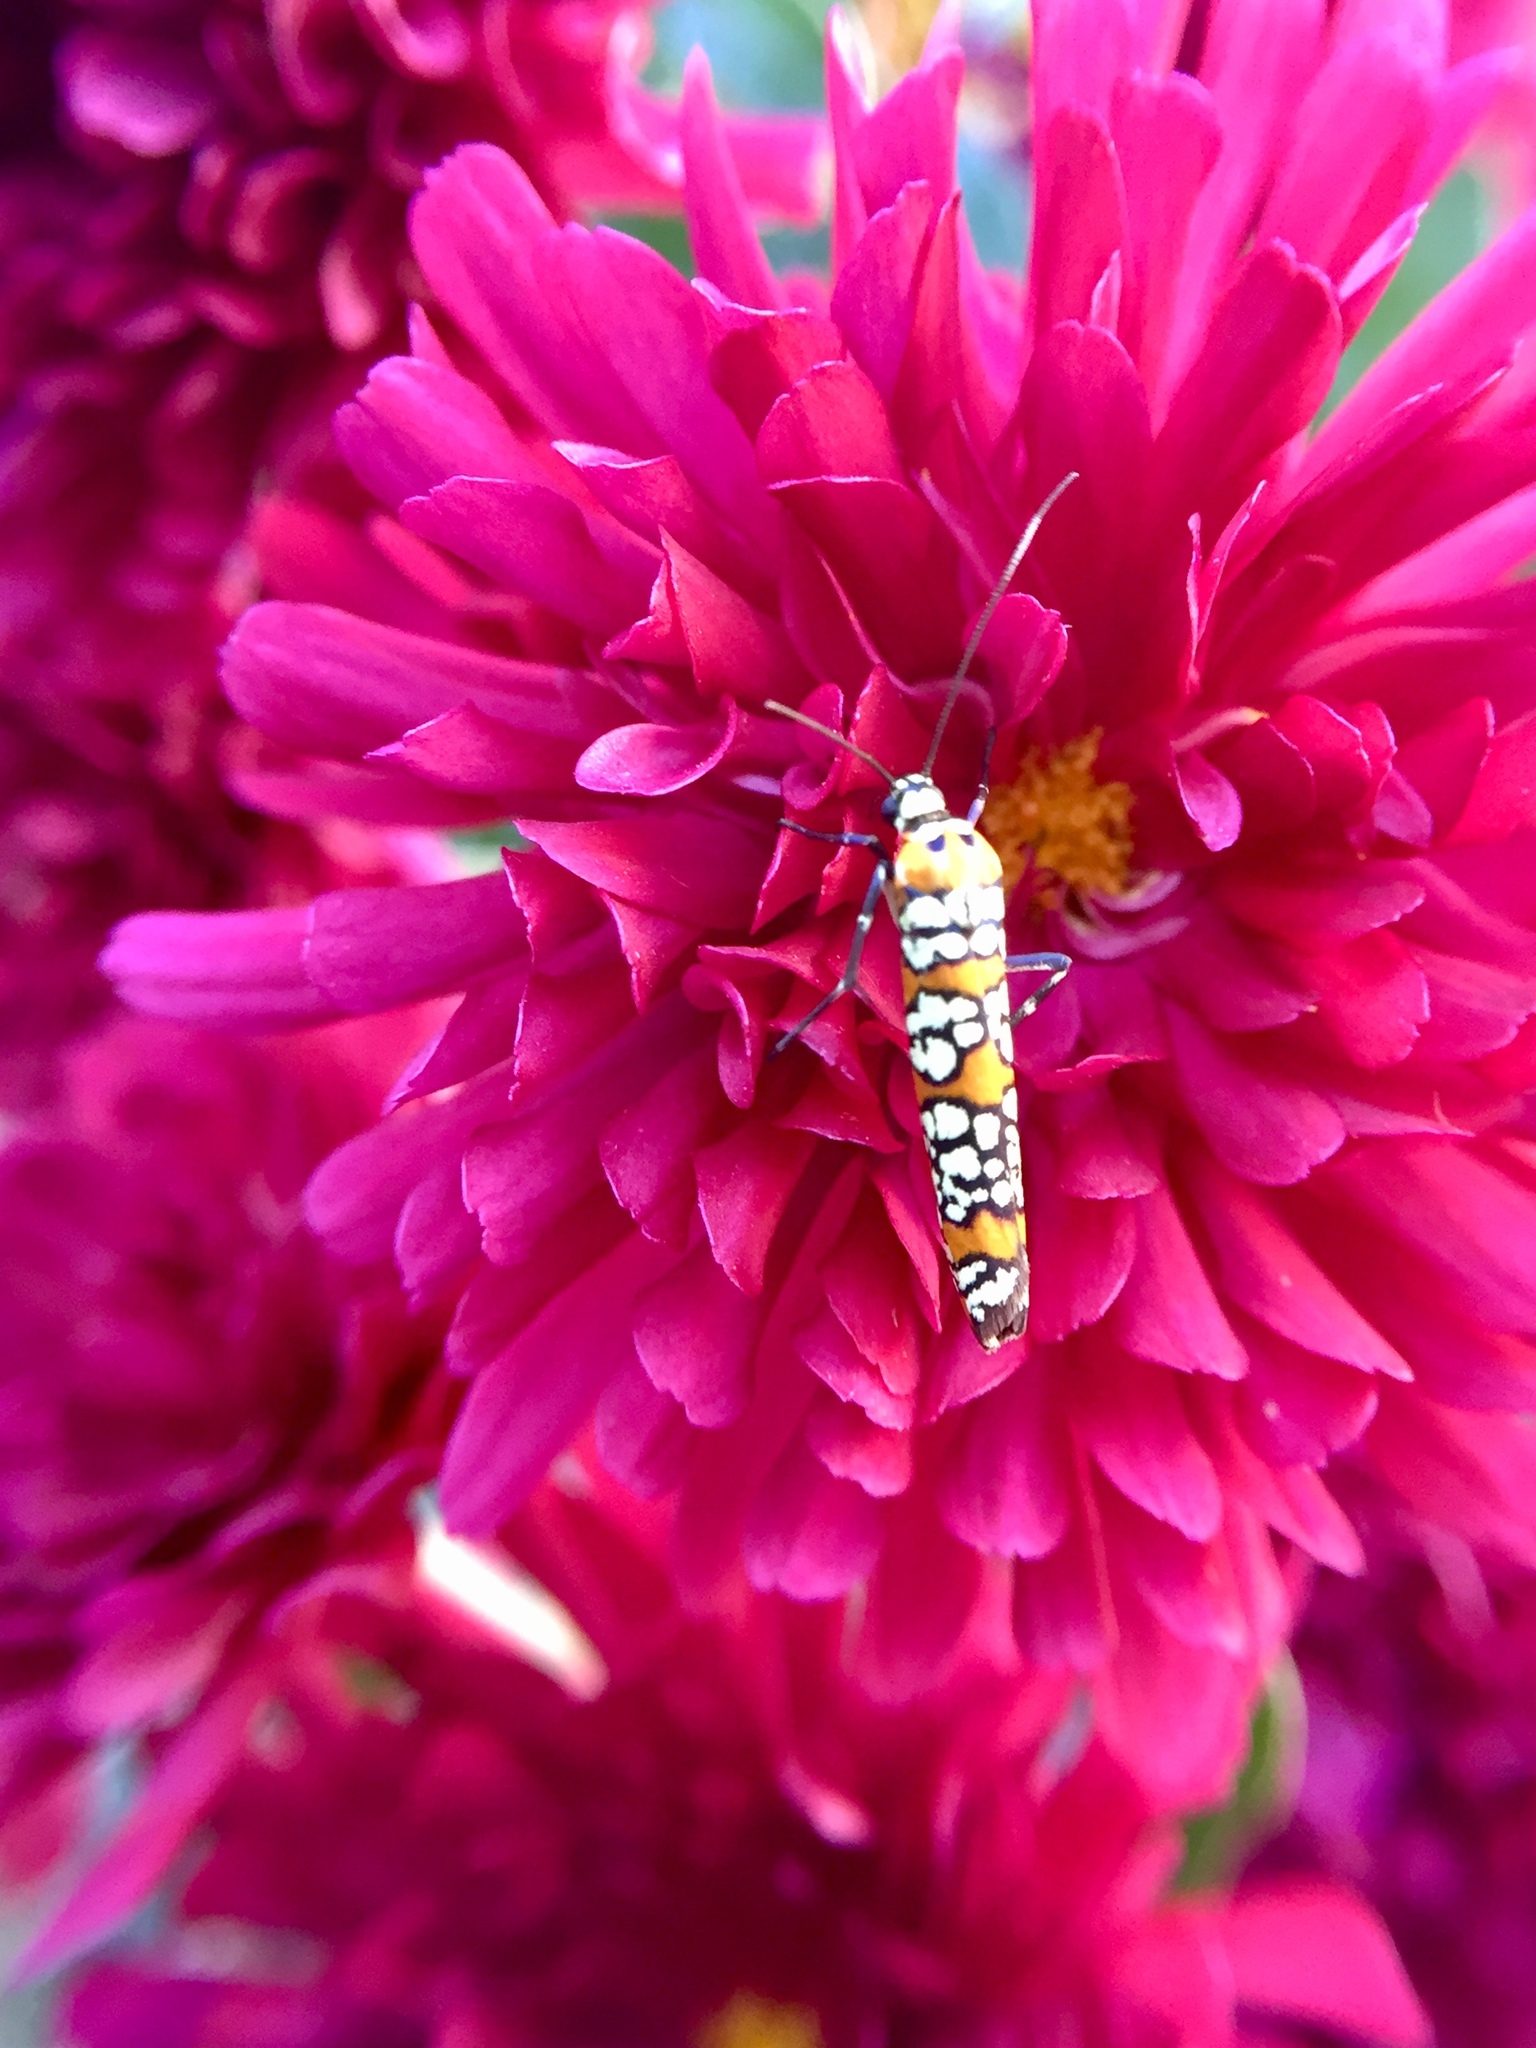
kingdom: Animalia
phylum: Arthropoda
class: Insecta
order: Lepidoptera
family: Attevidae
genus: Atteva
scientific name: Atteva punctella
